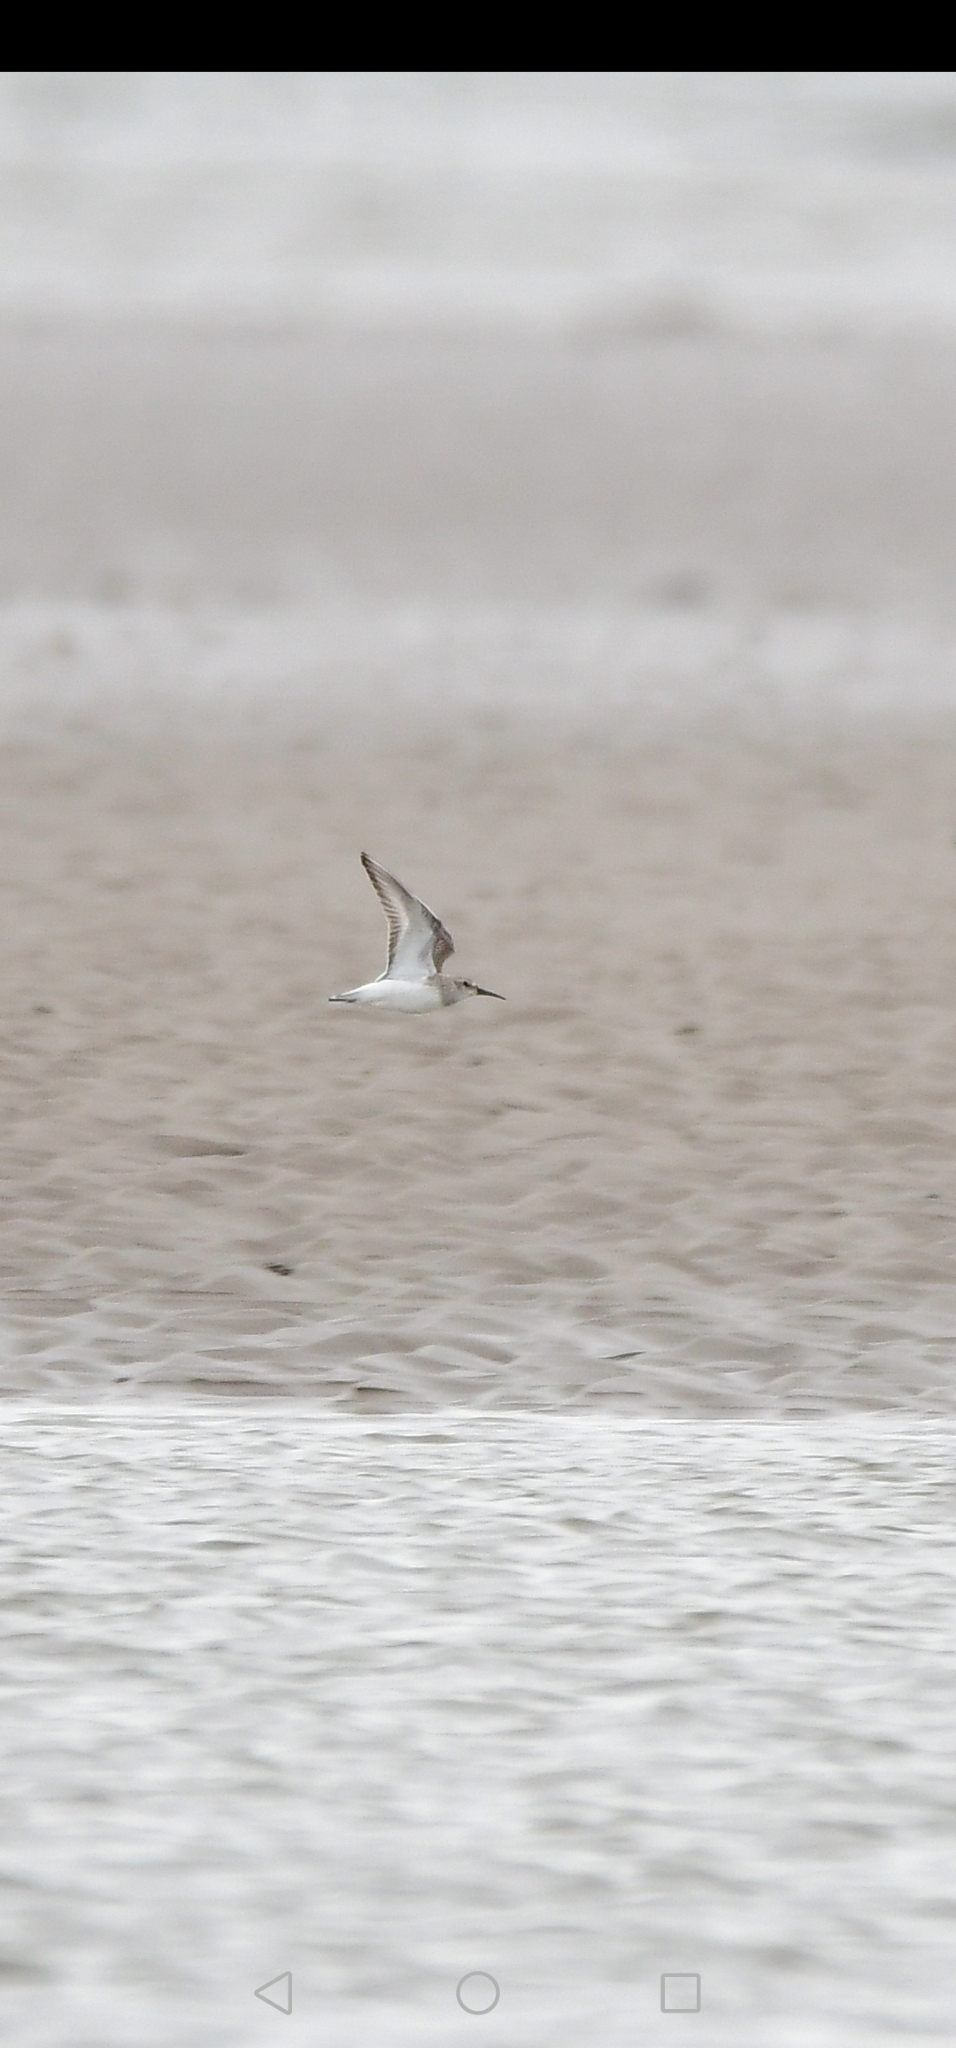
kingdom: Animalia
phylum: Chordata
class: Aves
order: Charadriiformes
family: Scolopacidae
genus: Calidris
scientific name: Calidris alpina
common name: Dunlin
